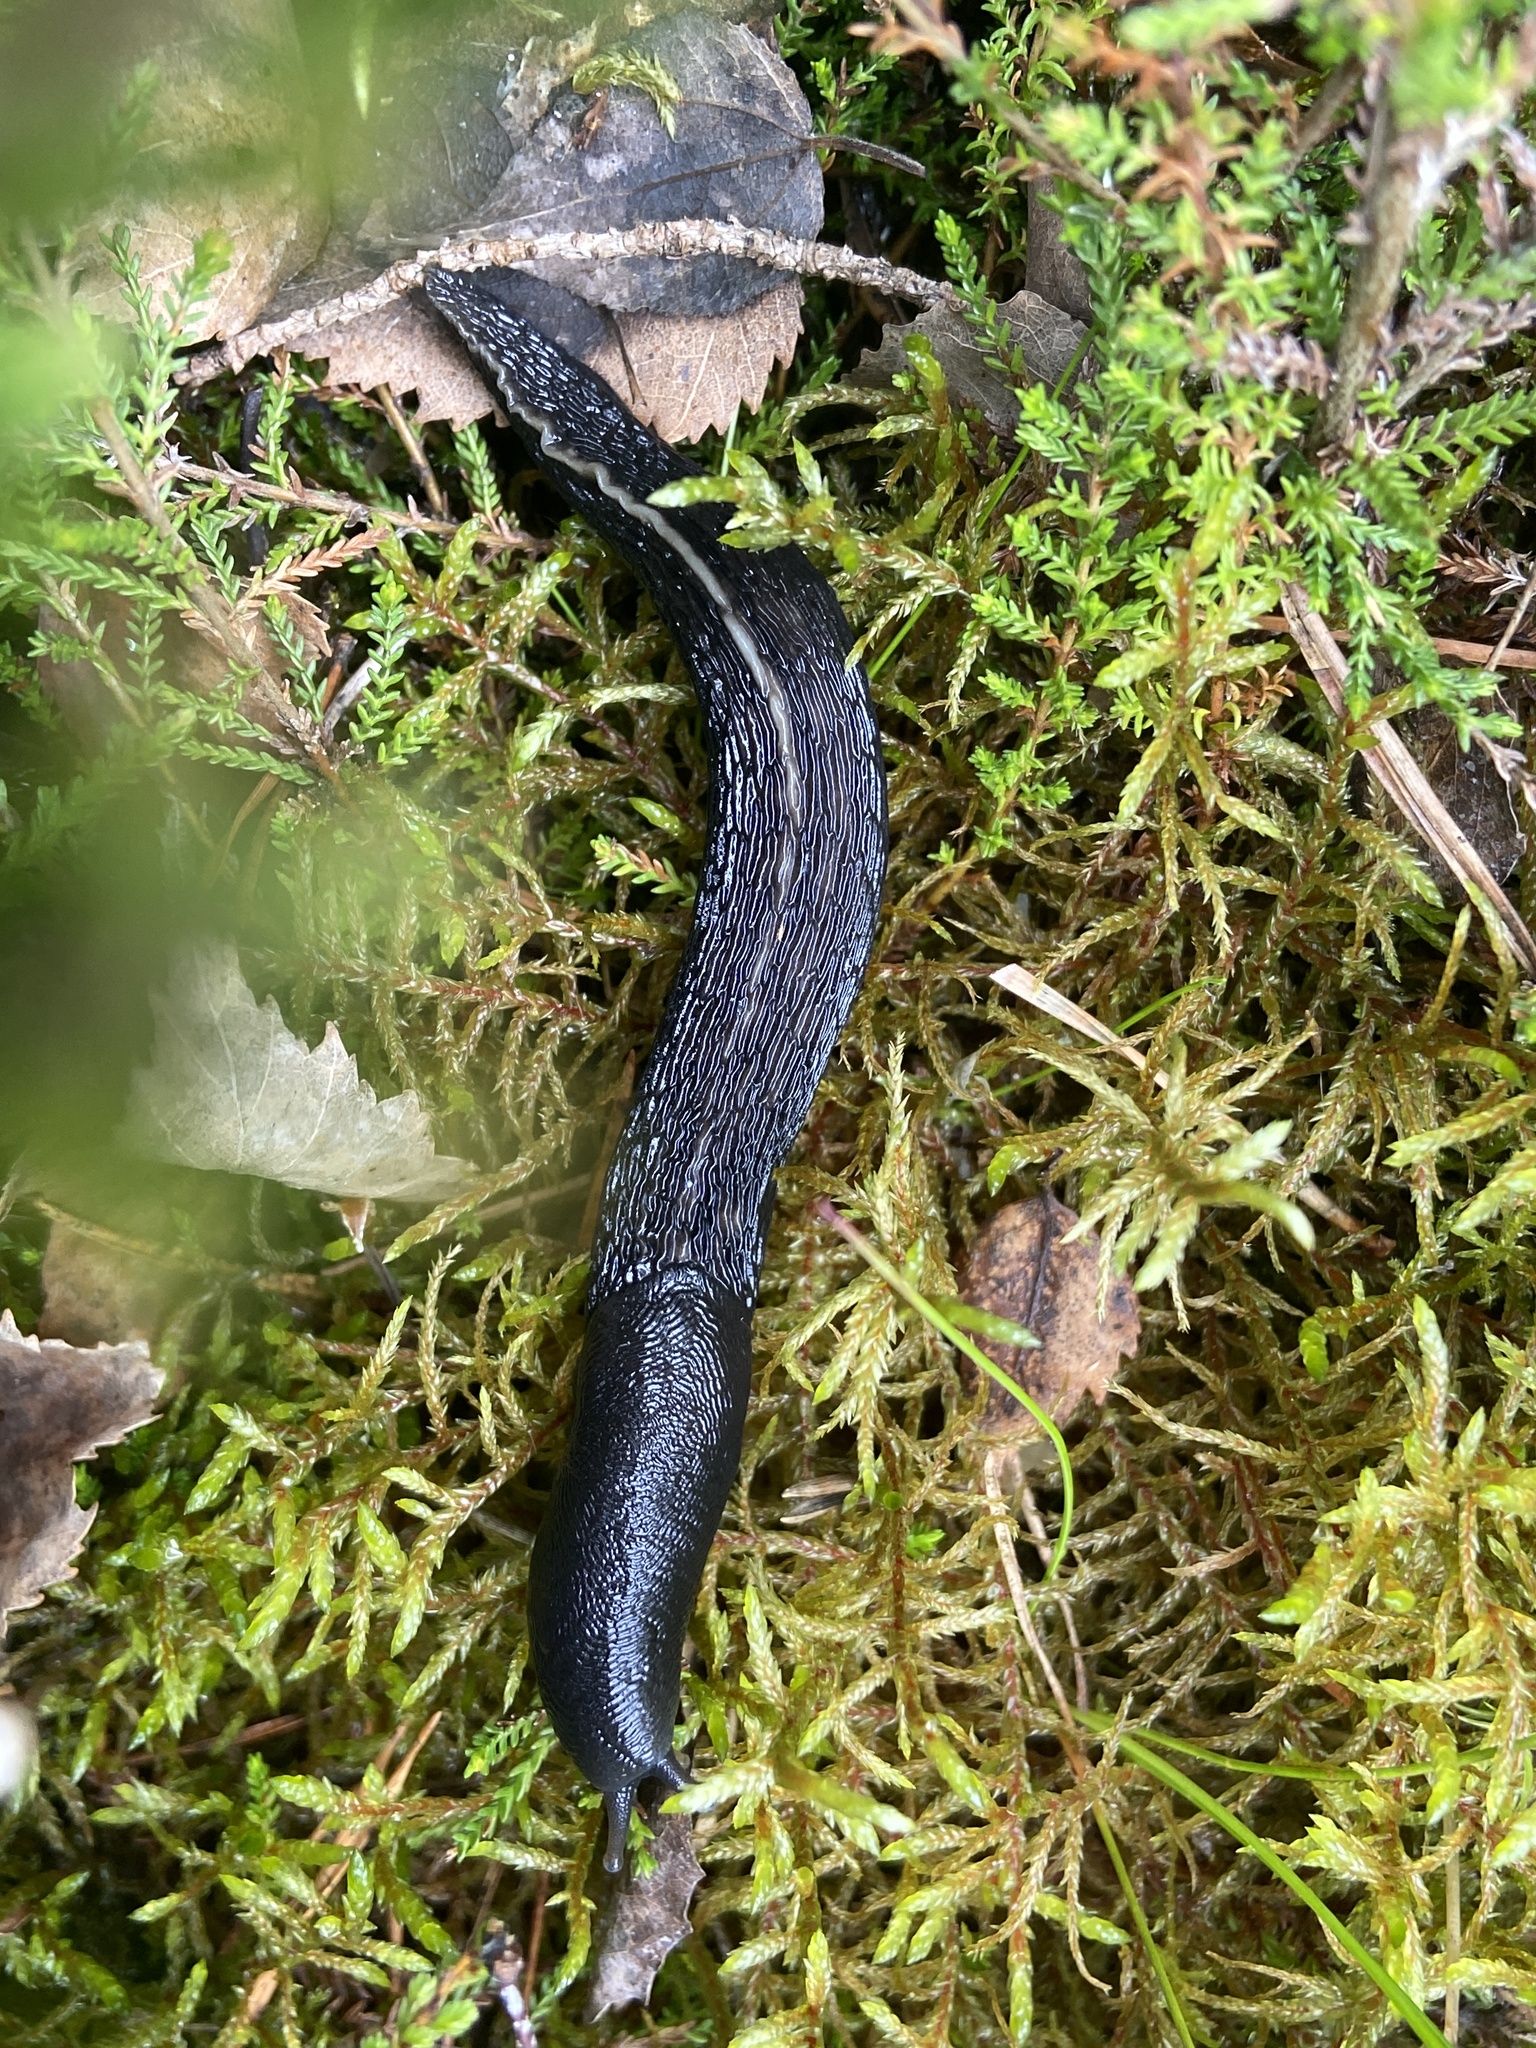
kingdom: Animalia
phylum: Mollusca
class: Gastropoda
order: Stylommatophora
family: Limacidae
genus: Limax
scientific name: Limax cinereoniger
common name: Ash-black slug
